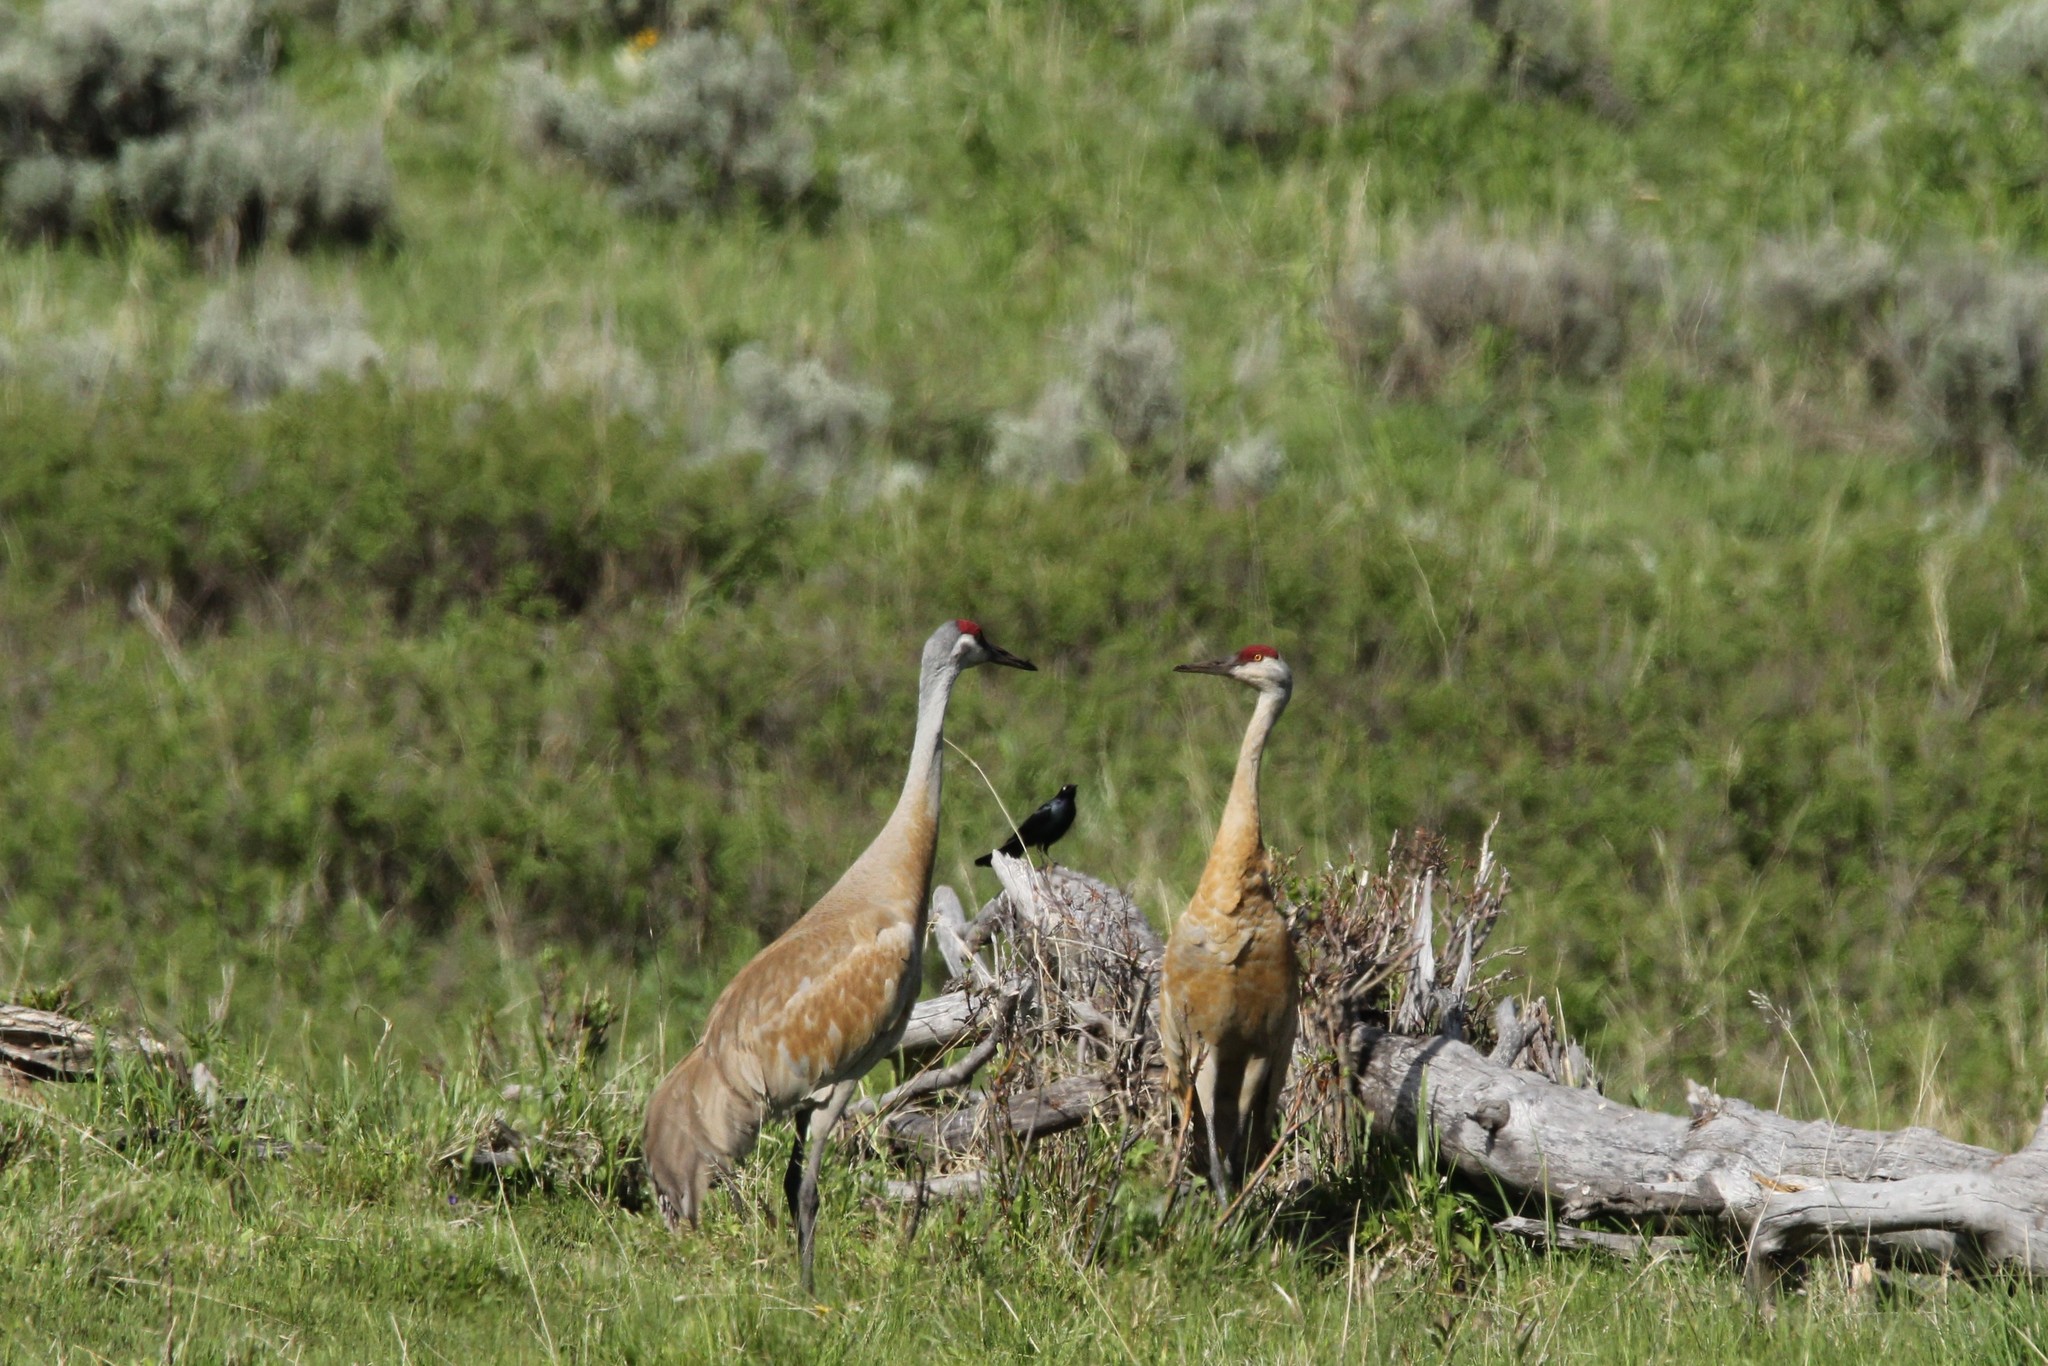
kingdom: Animalia
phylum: Chordata
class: Aves
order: Passeriformes
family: Icteridae
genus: Euphagus
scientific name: Euphagus cyanocephalus
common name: Brewer's blackbird
